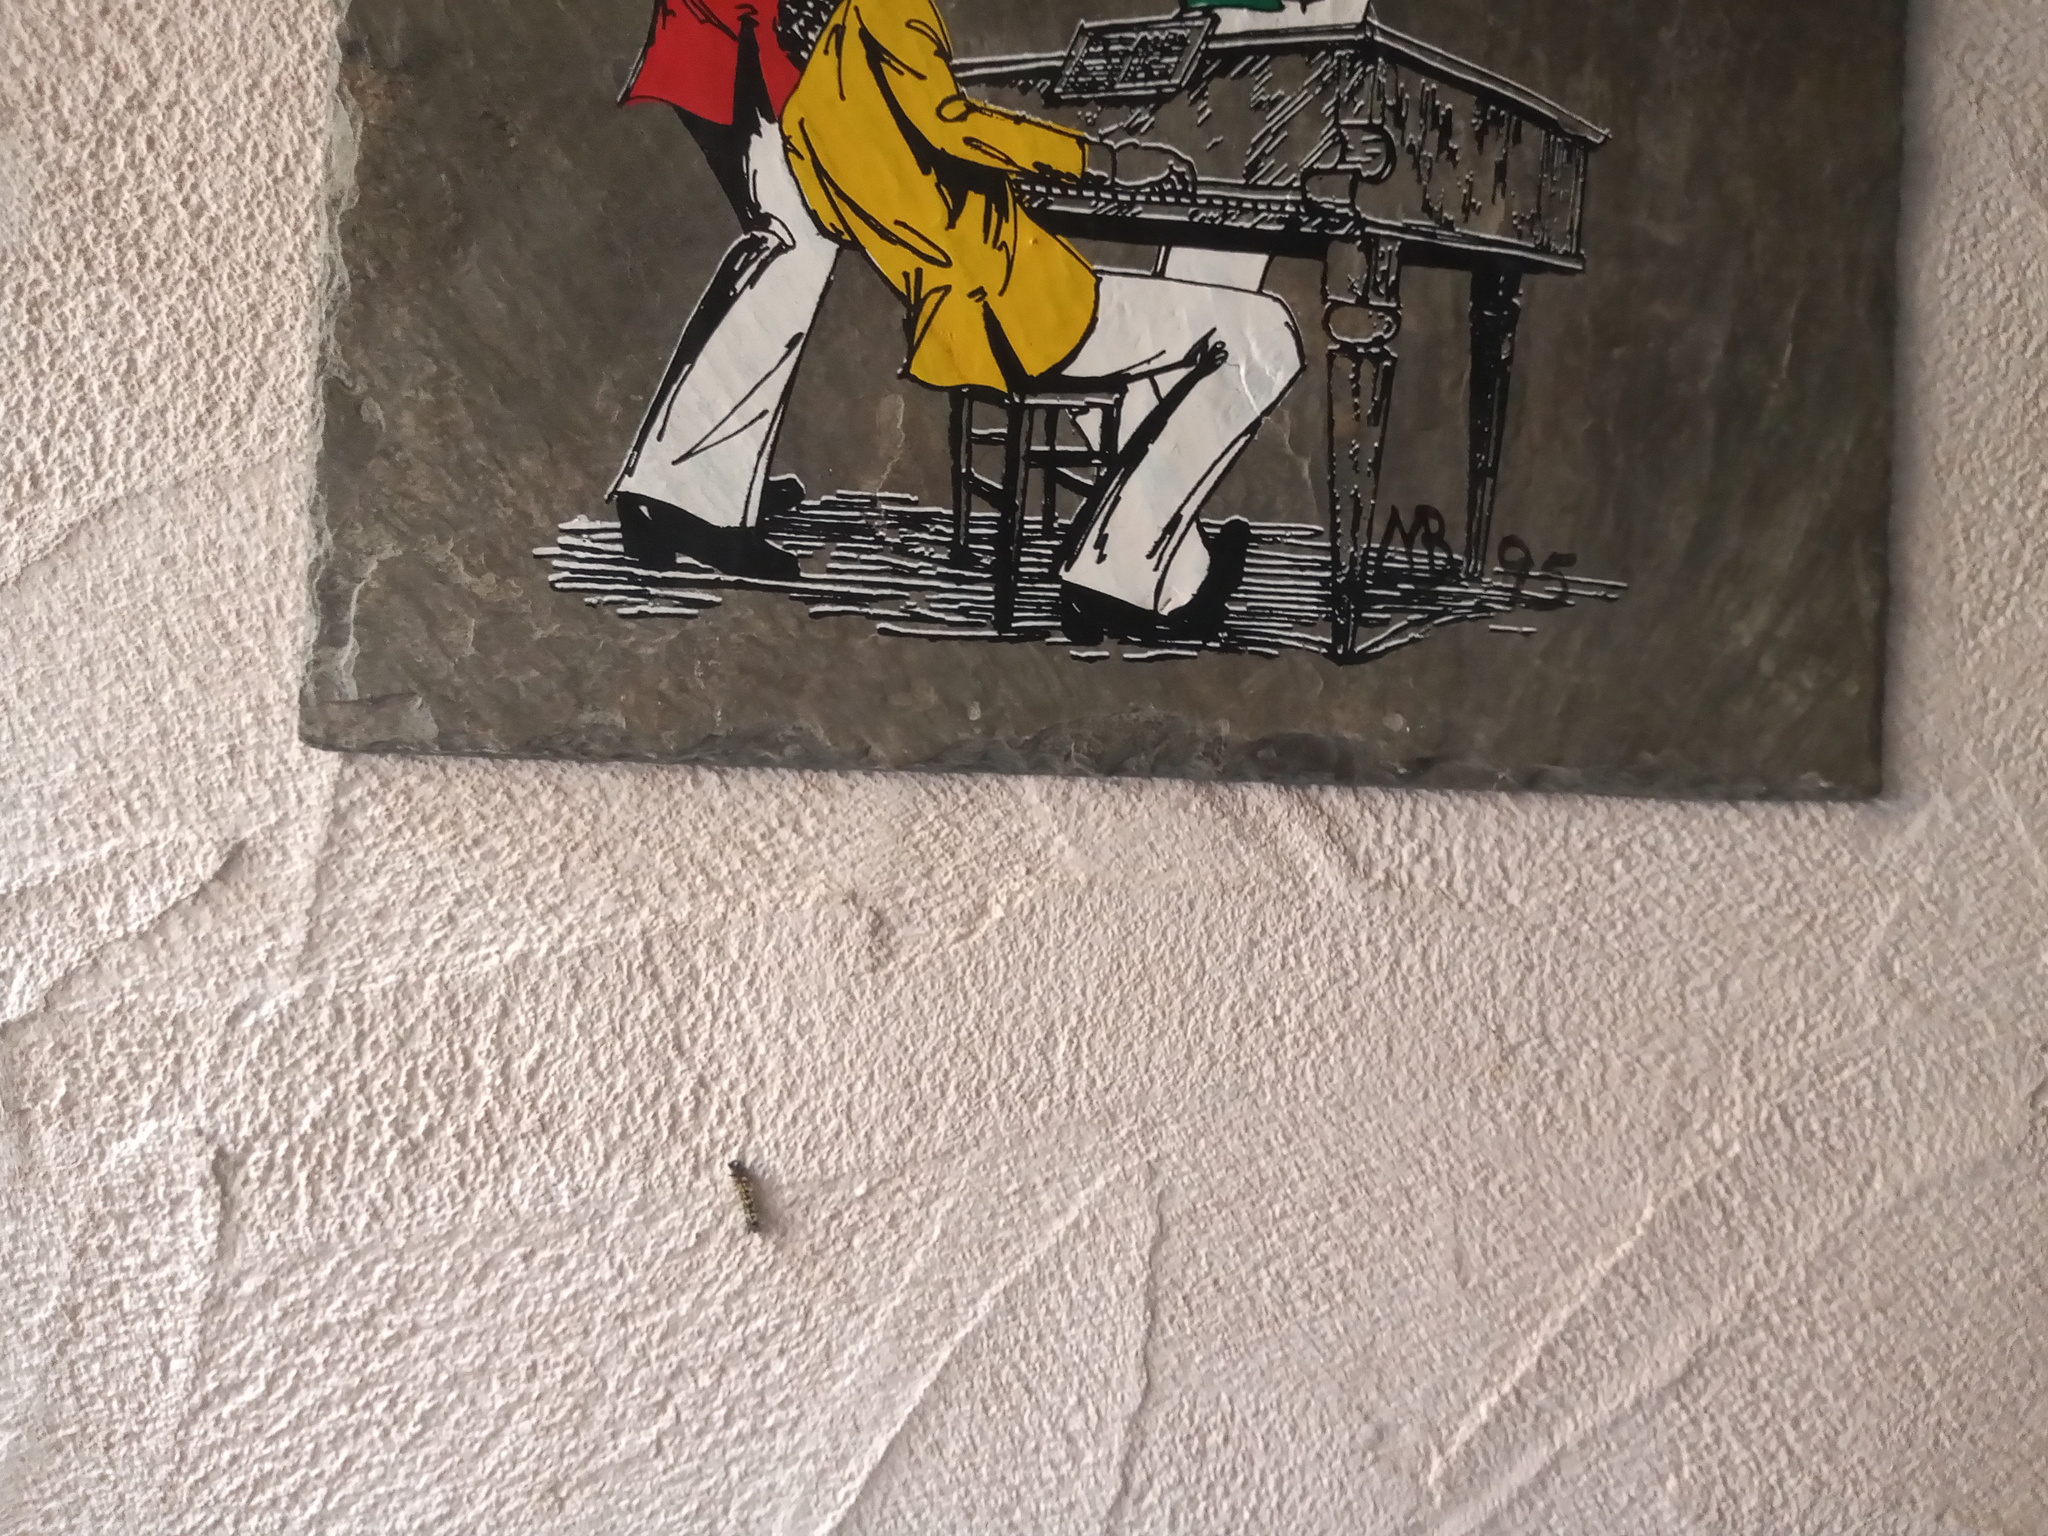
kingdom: Animalia
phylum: Arthropoda
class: Insecta
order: Lepidoptera
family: Nymphalidae
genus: Polygonia
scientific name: Polygonia interrogationis
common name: Question mark
